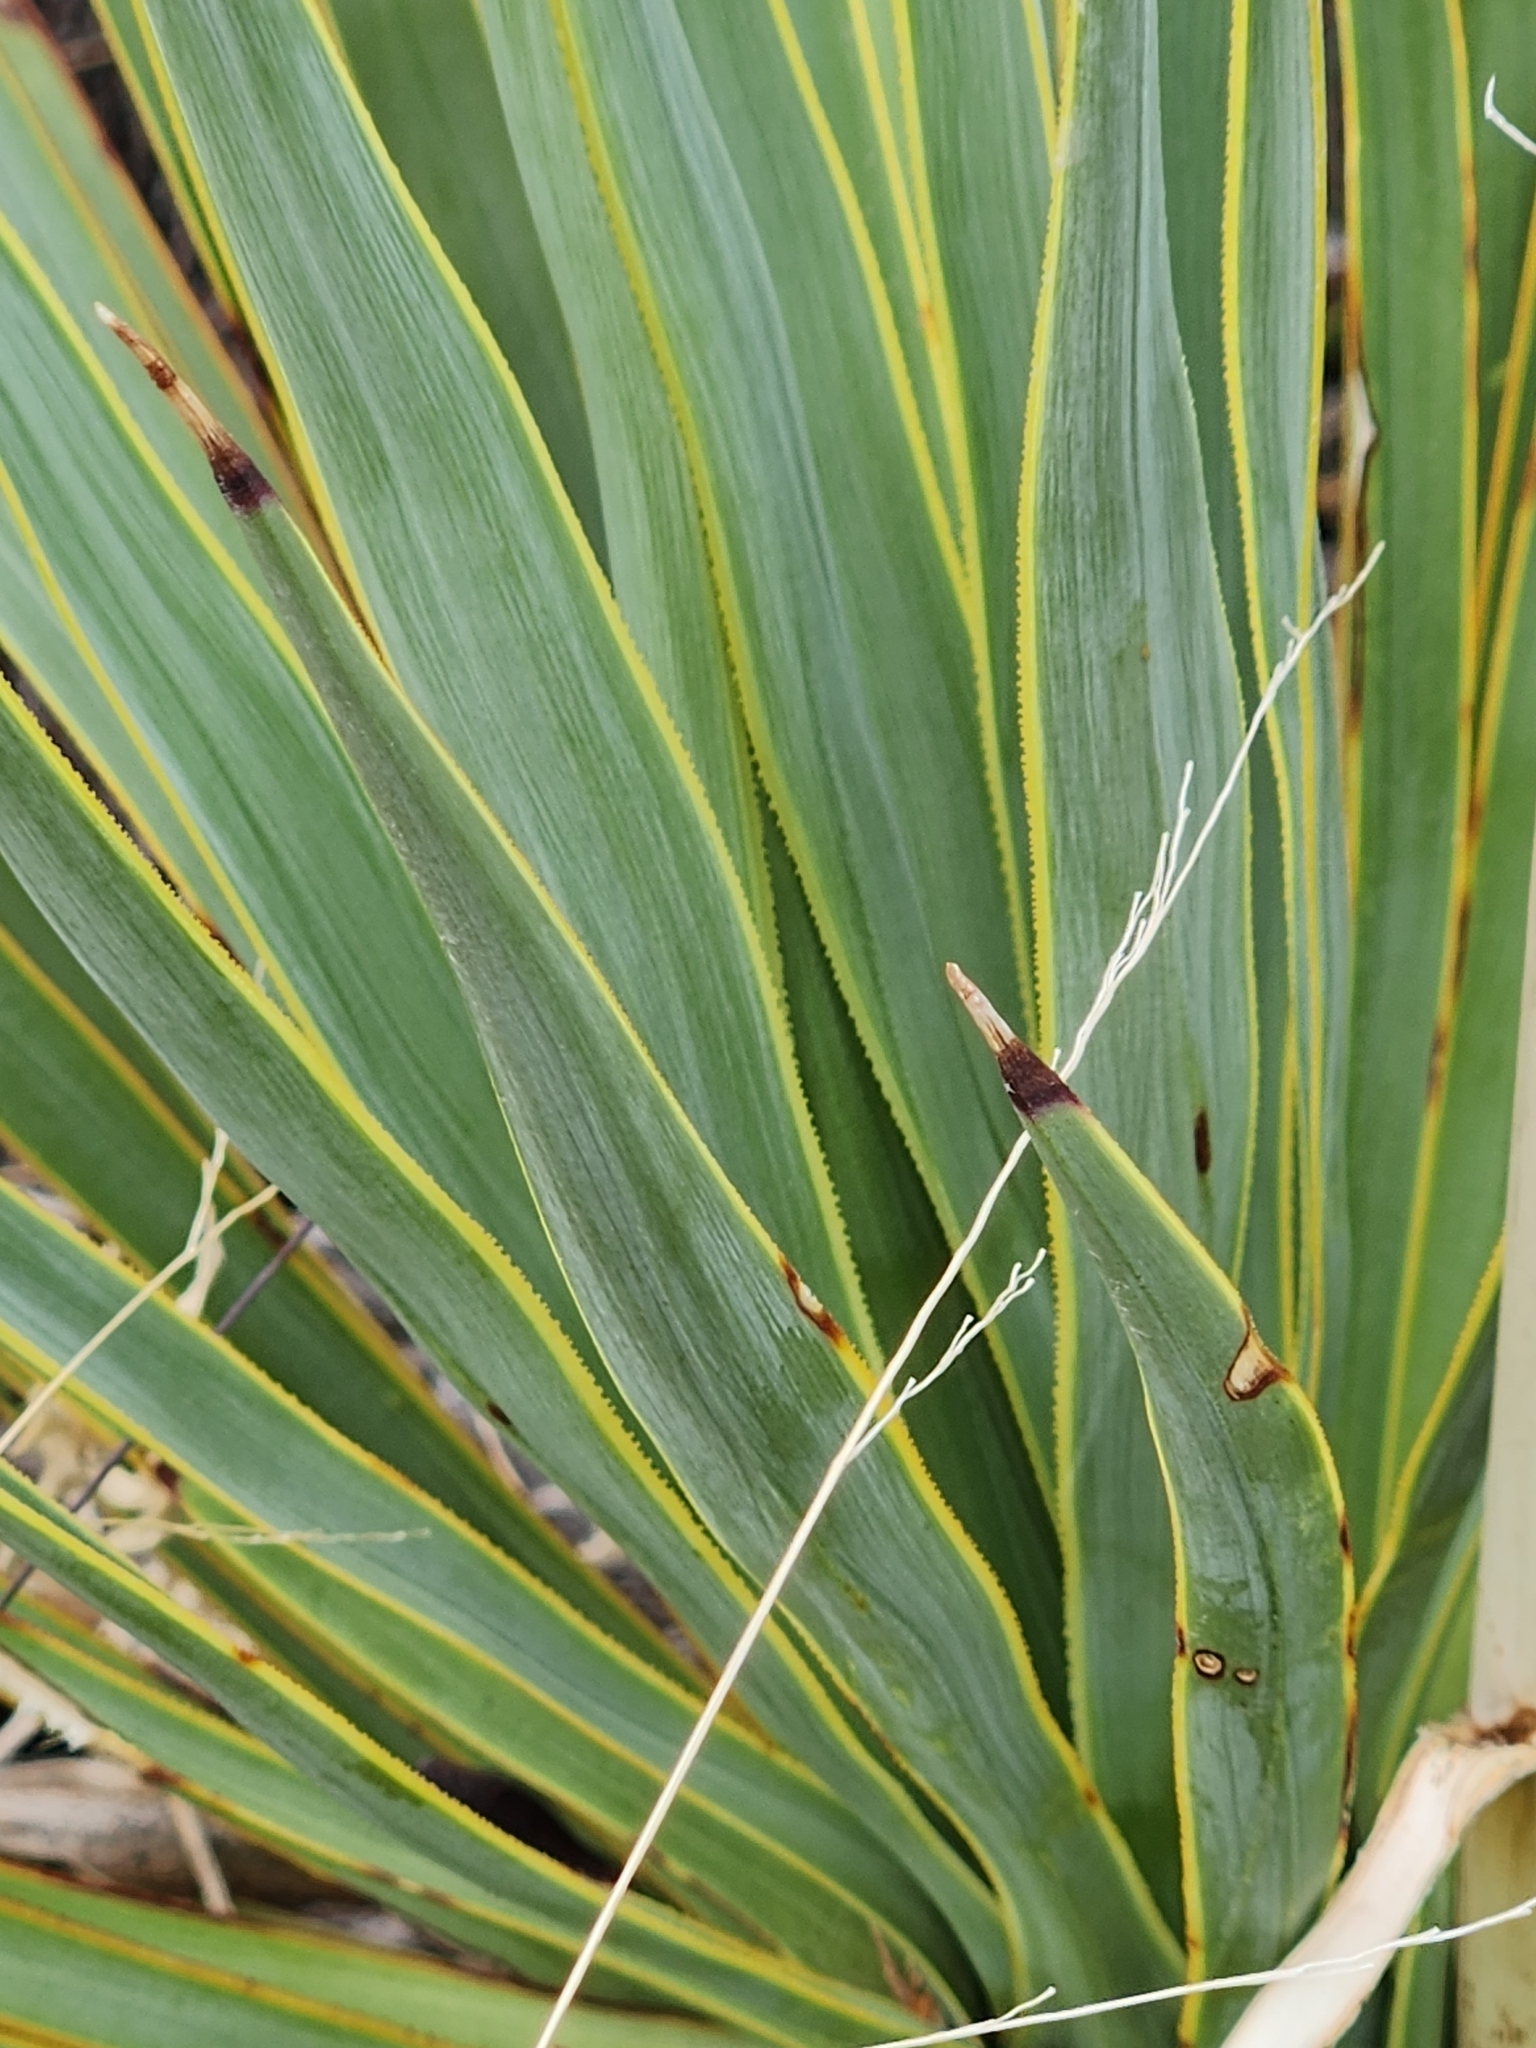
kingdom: Plantae
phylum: Tracheophyta
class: Liliopsida
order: Asparagales
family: Asparagaceae
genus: Yucca
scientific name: Yucca thompsoniana
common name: Trans-pecos yucca
